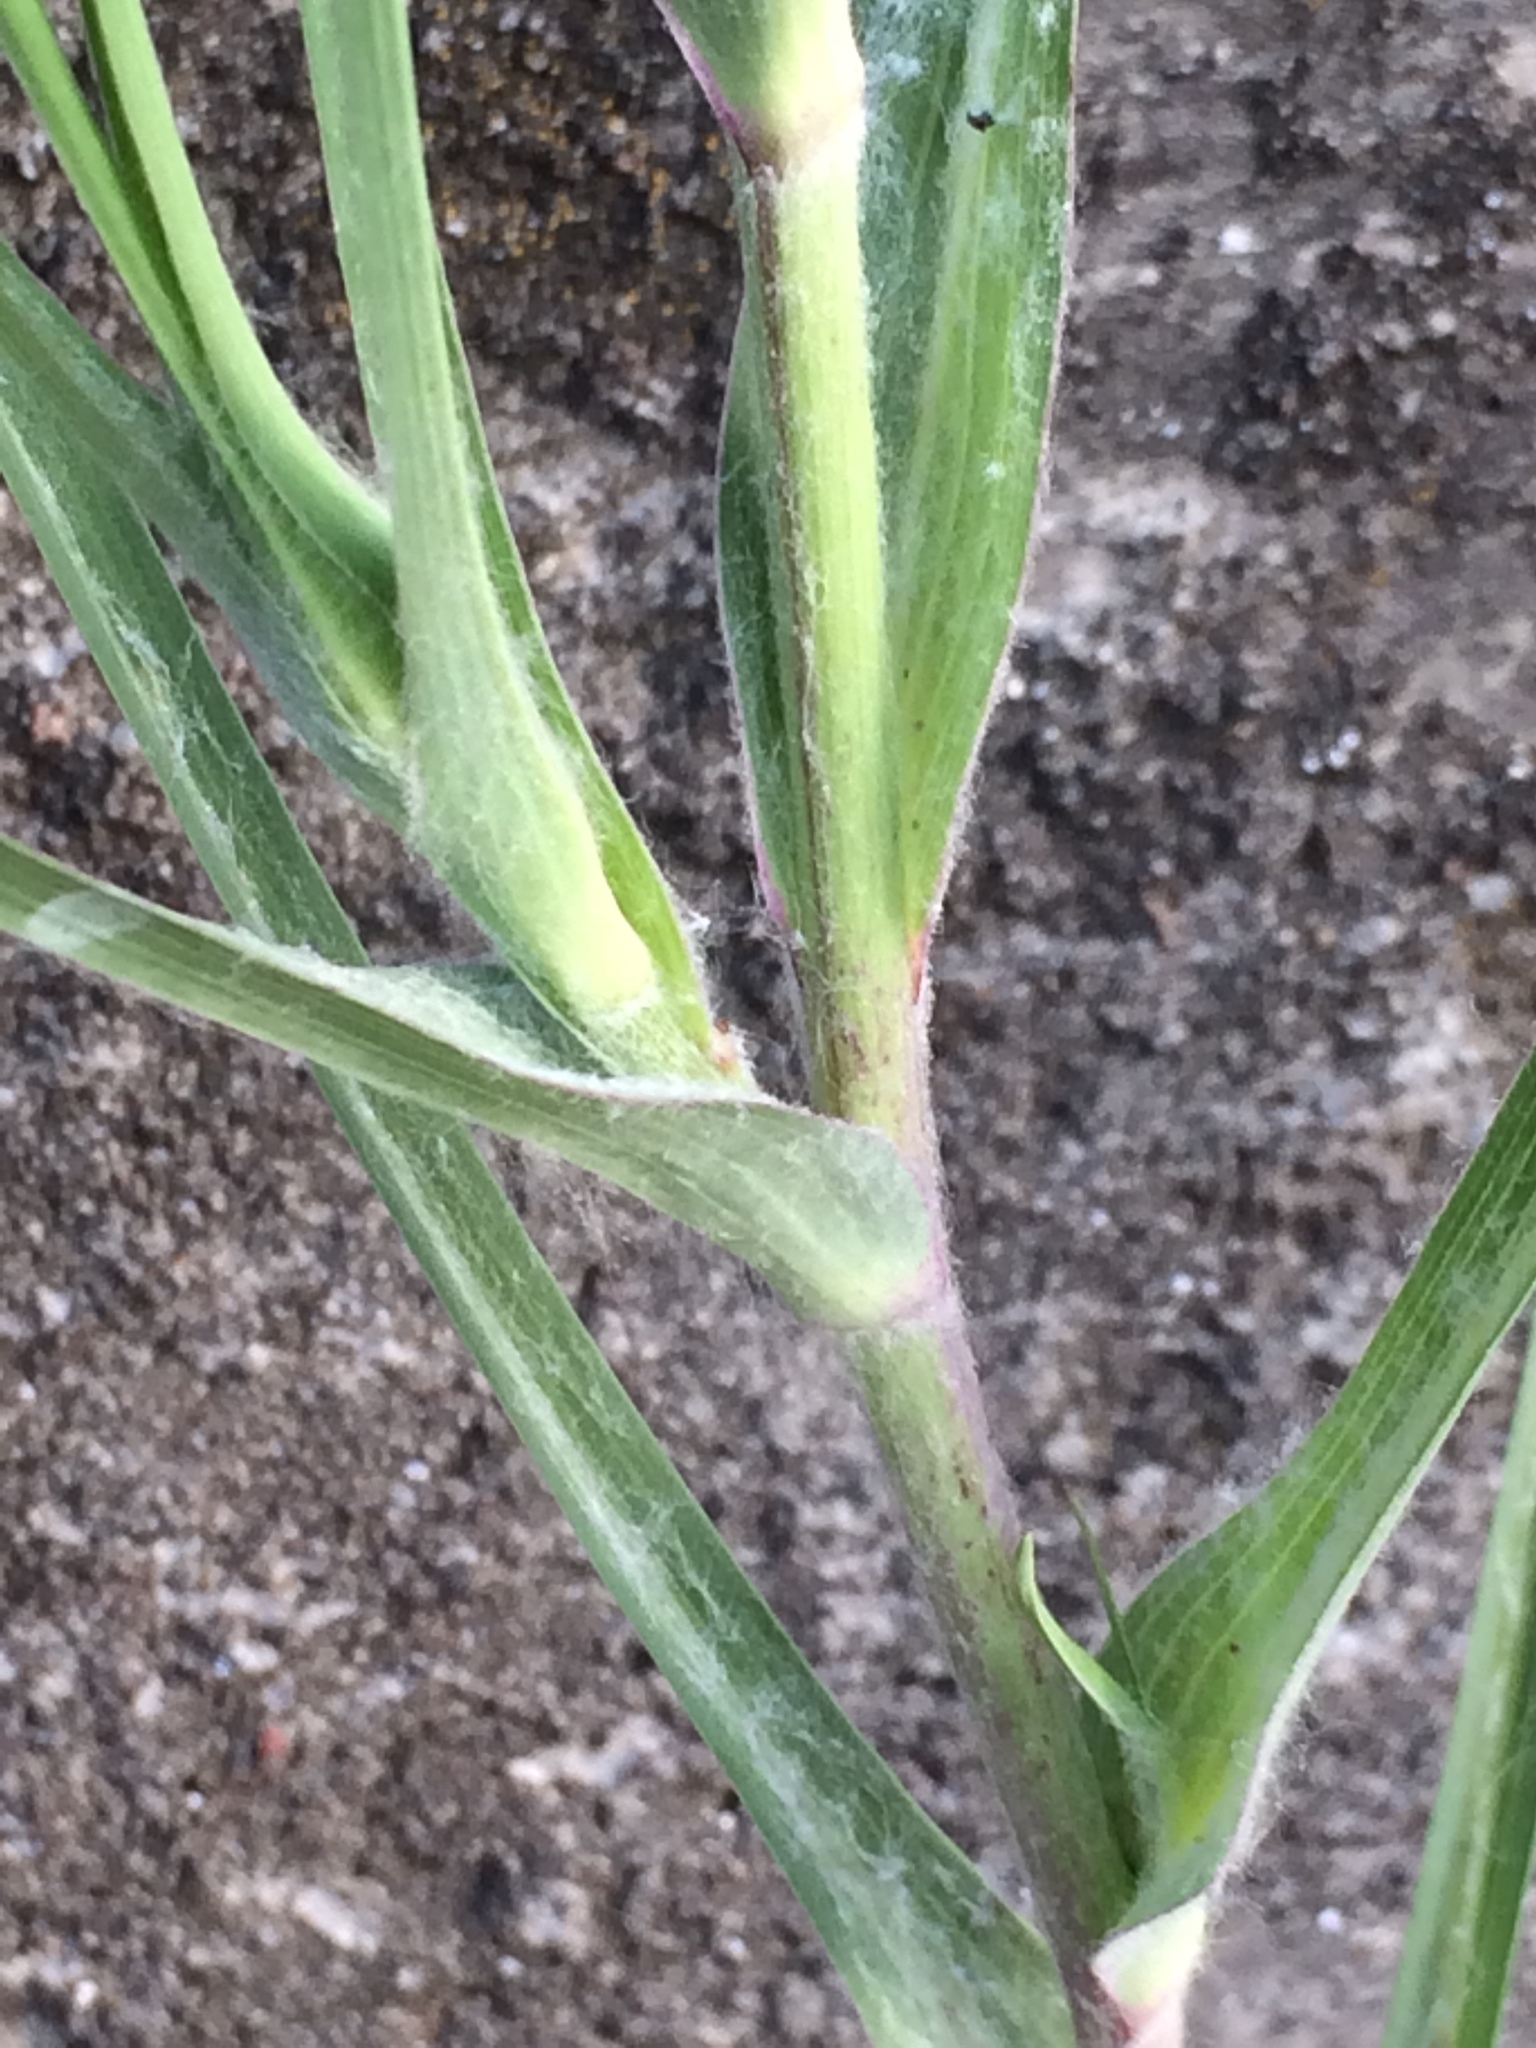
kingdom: Plantae
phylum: Tracheophyta
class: Magnoliopsida
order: Asterales
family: Asteraceae
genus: Tragopogon
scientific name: Tragopogon dubius
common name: Yellow salsify
